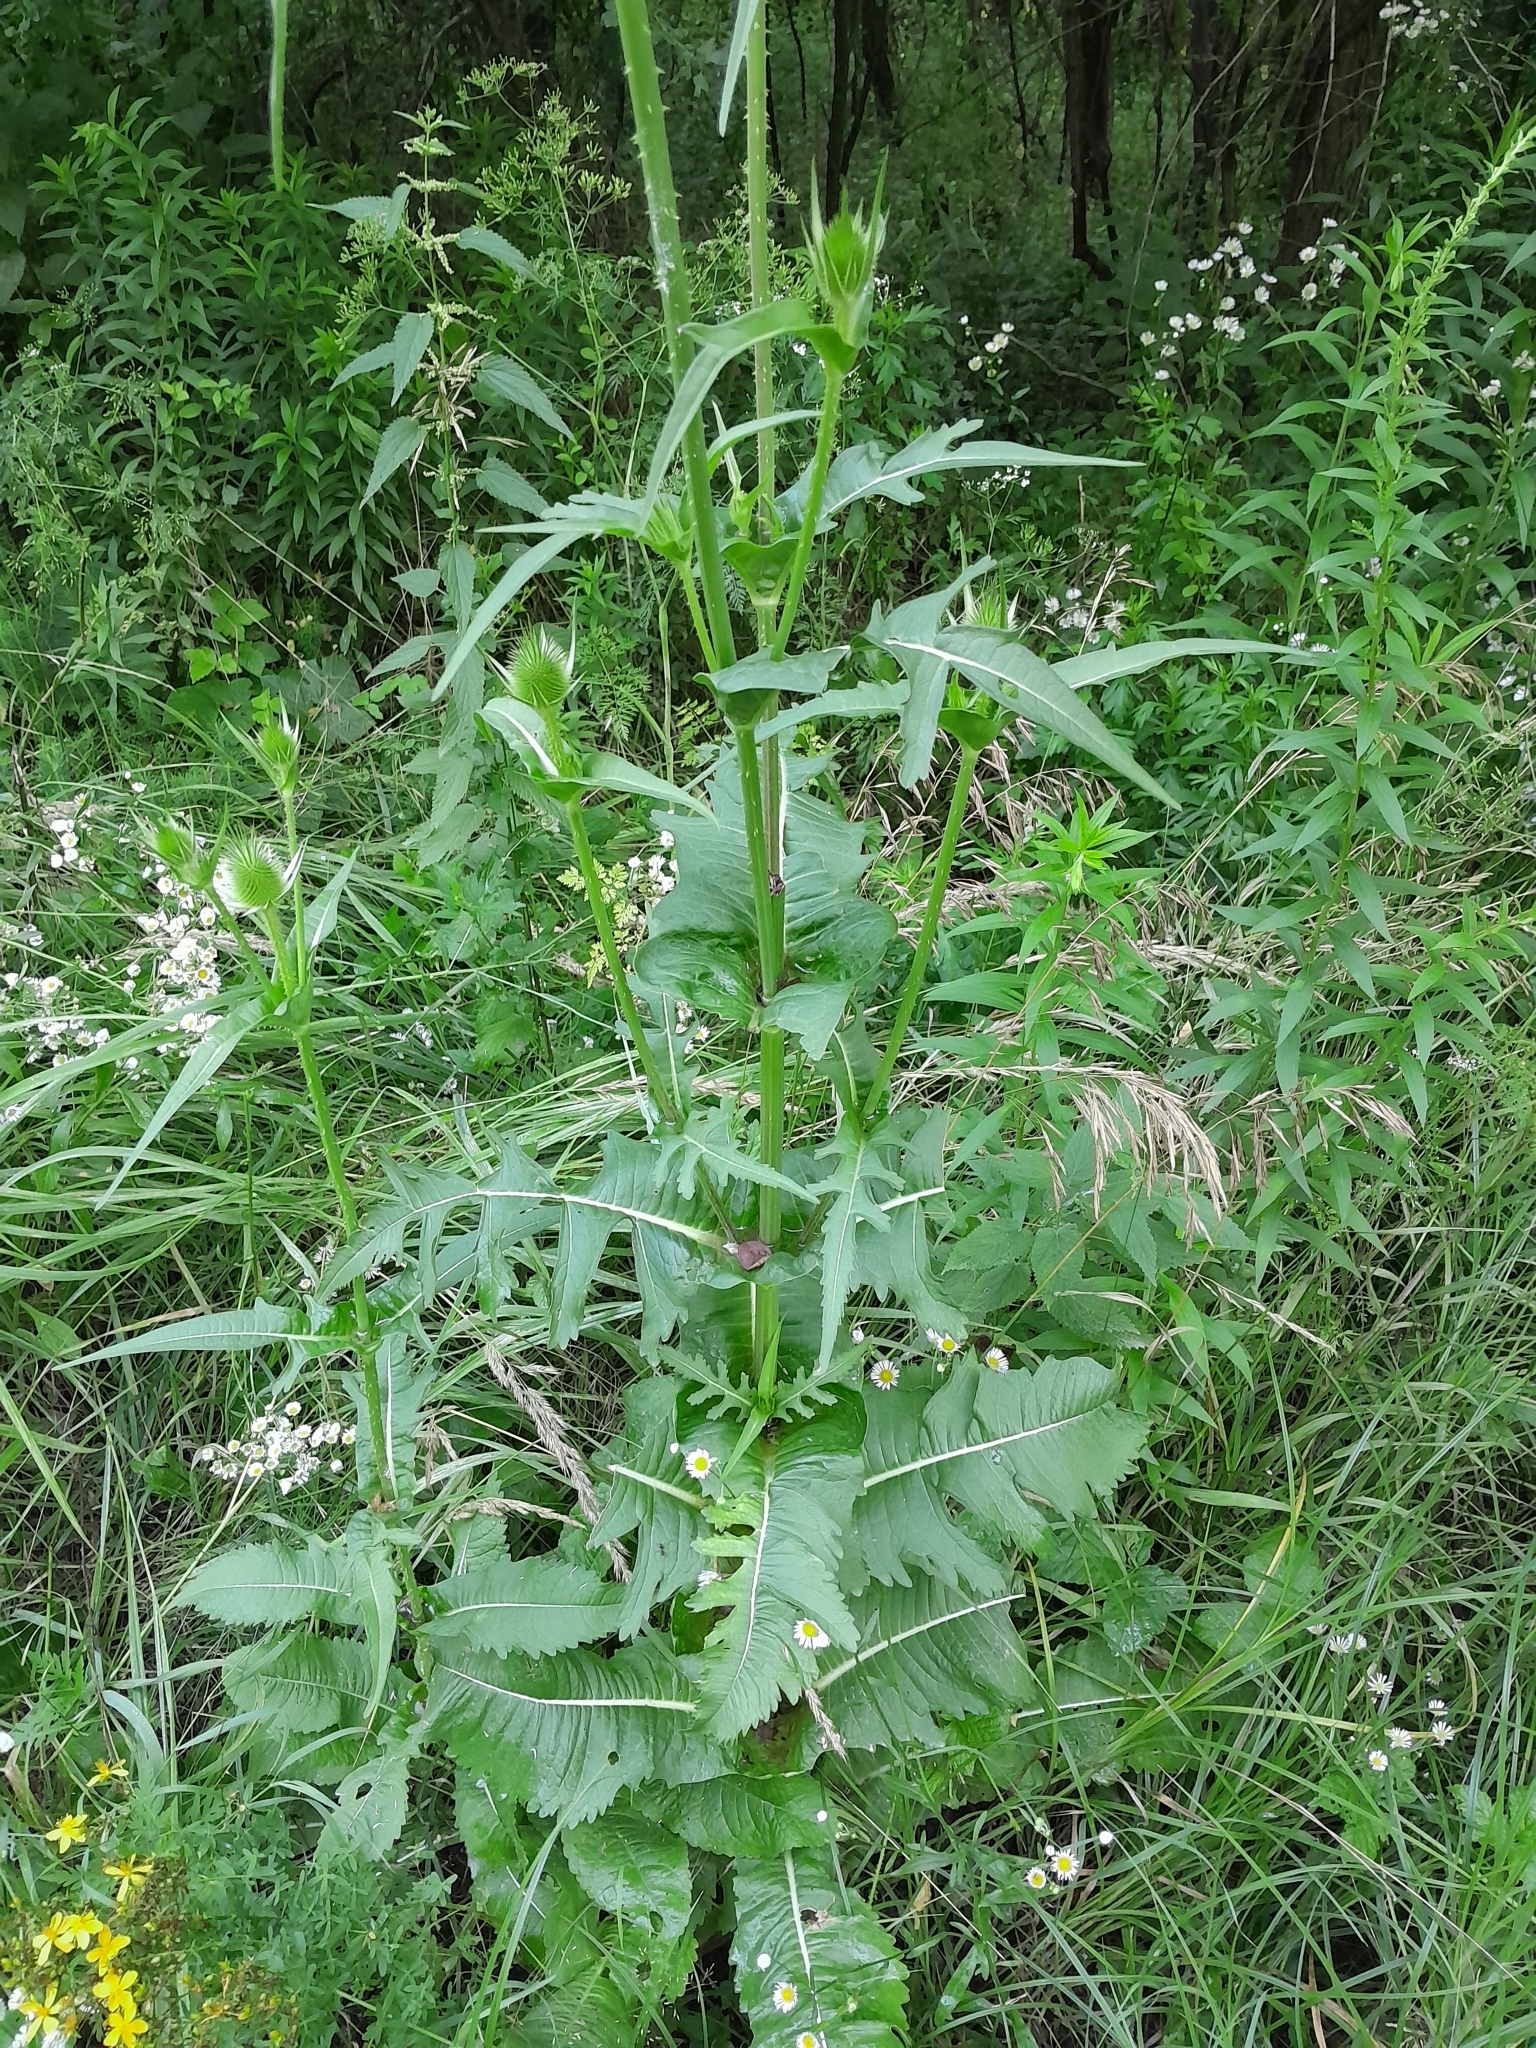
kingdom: Plantae
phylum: Tracheophyta
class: Magnoliopsida
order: Dipsacales
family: Caprifoliaceae
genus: Dipsacus
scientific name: Dipsacus laciniatus
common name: Cut-leaved teasel
